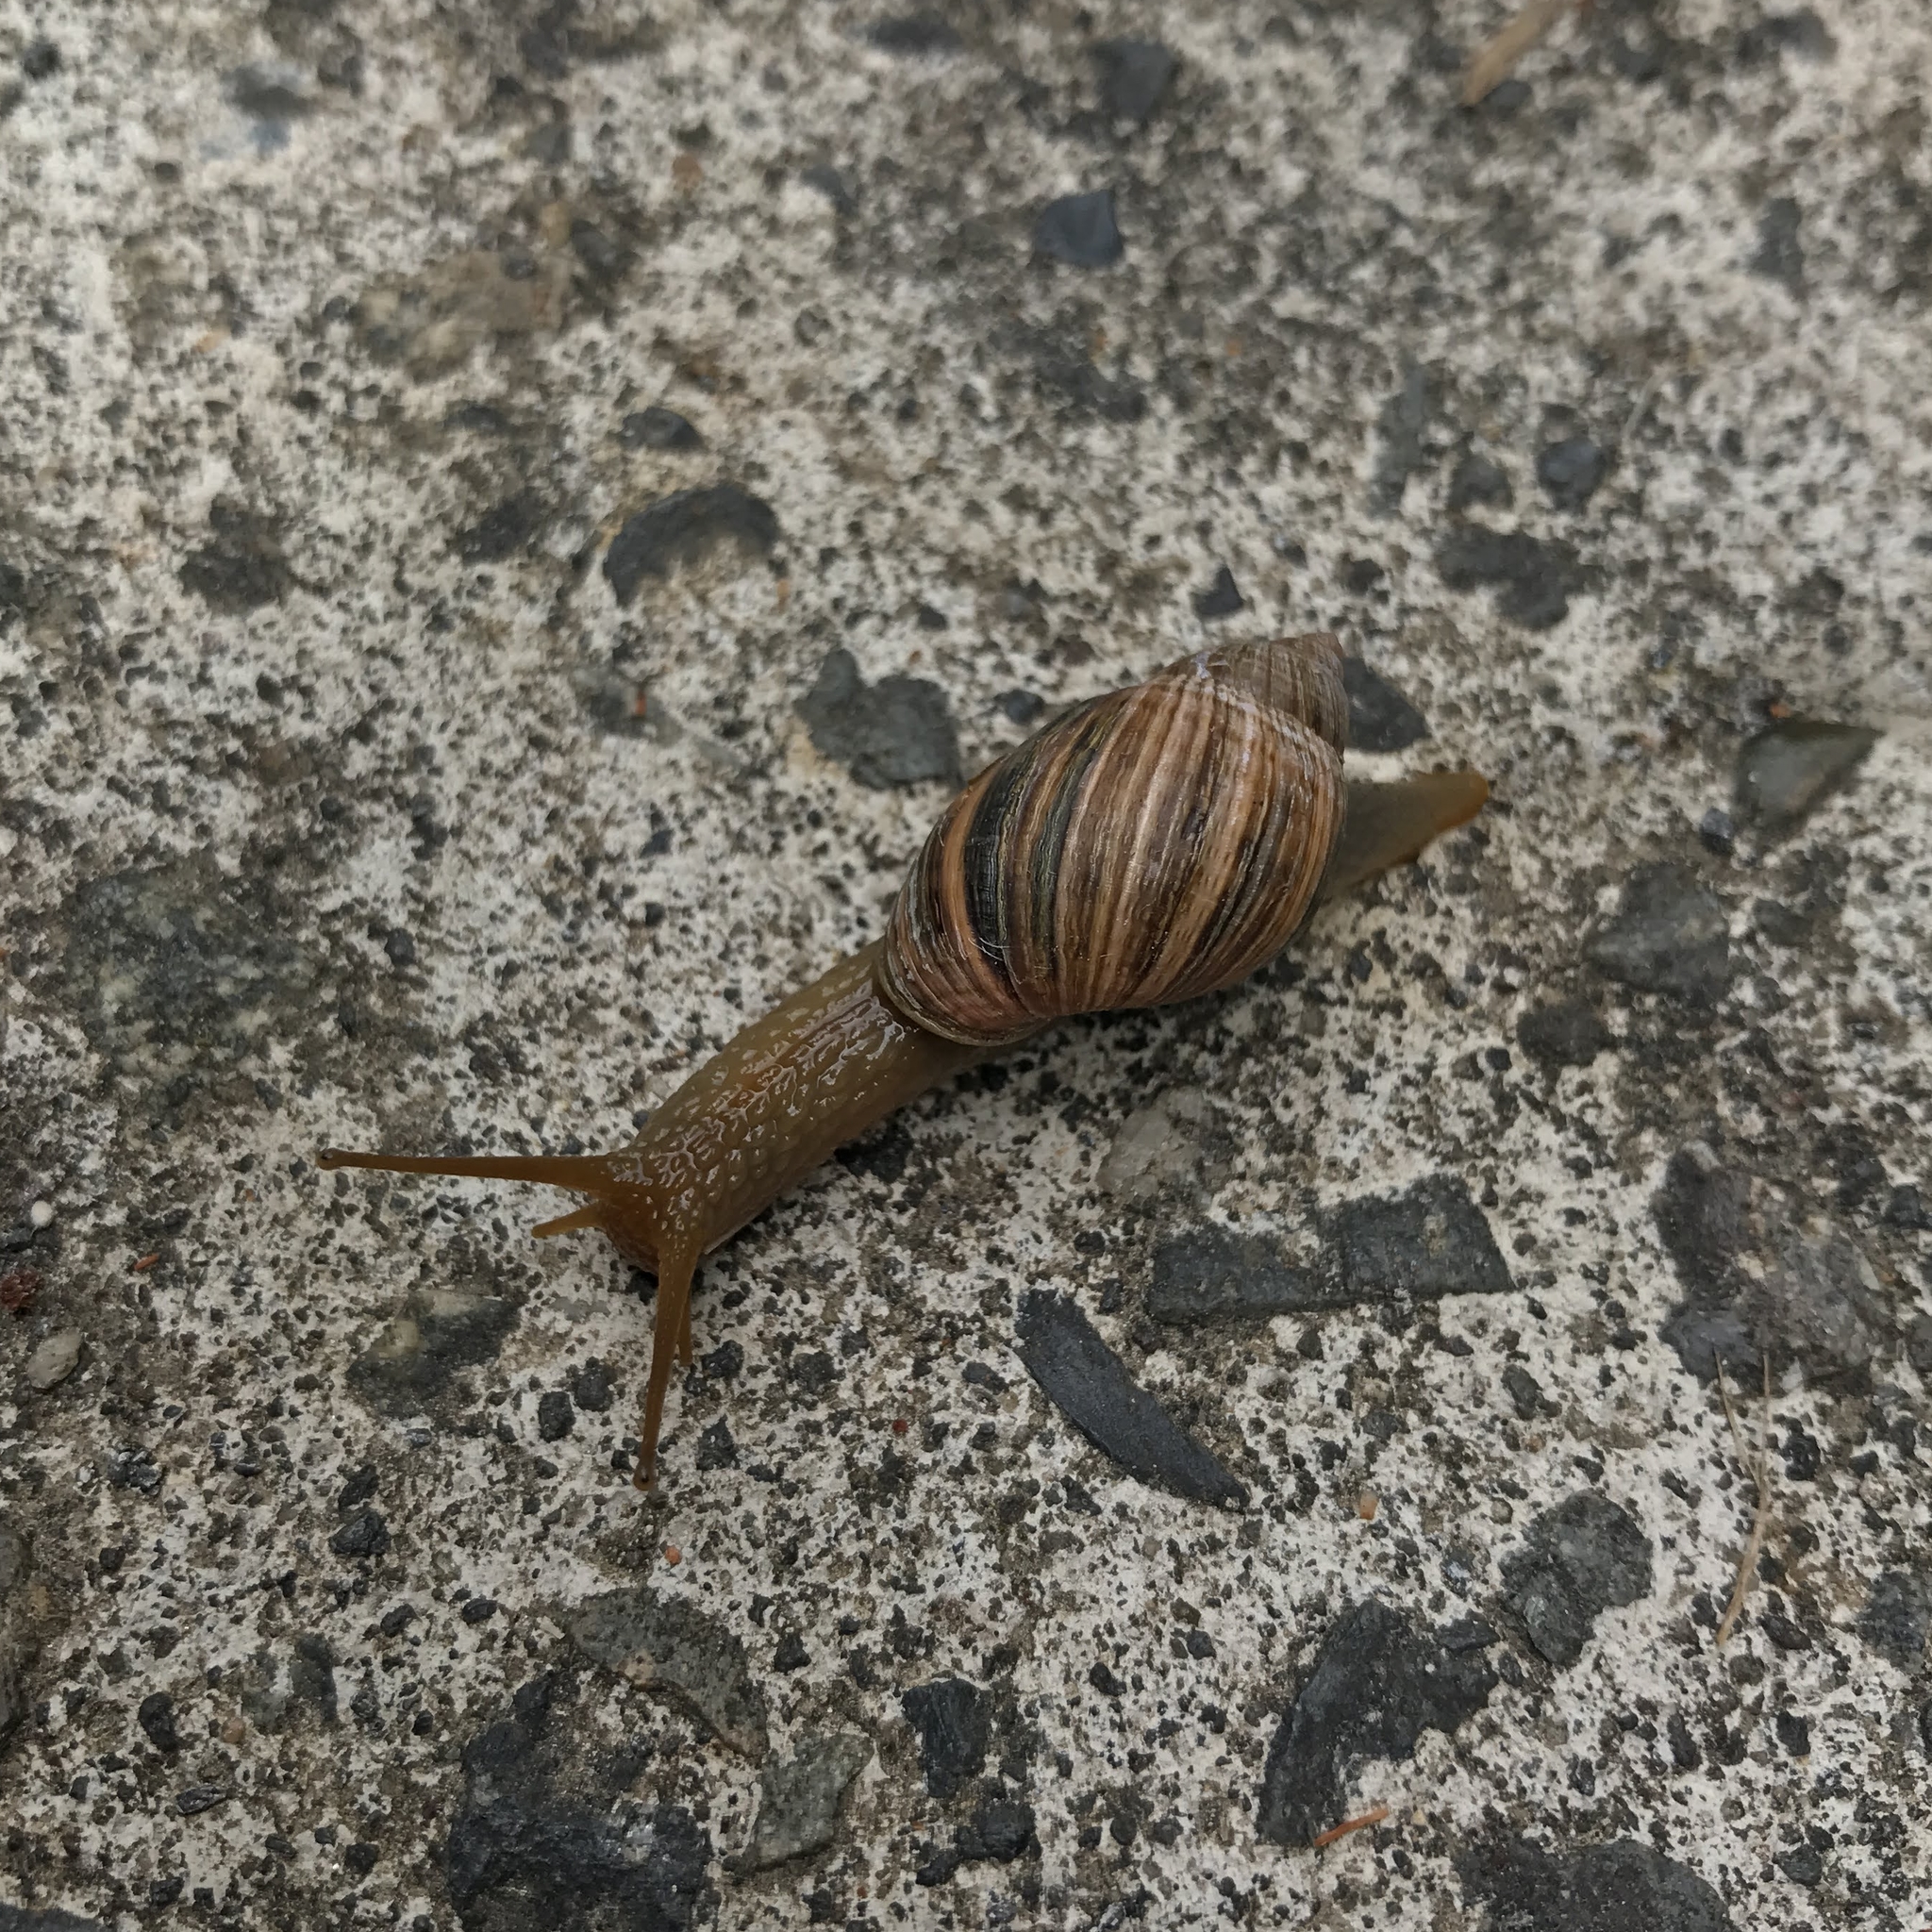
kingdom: Animalia
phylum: Mollusca
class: Gastropoda
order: Stylommatophora
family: Strophocheilidae
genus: Chiliborus
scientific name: Chiliborus rosaceus
